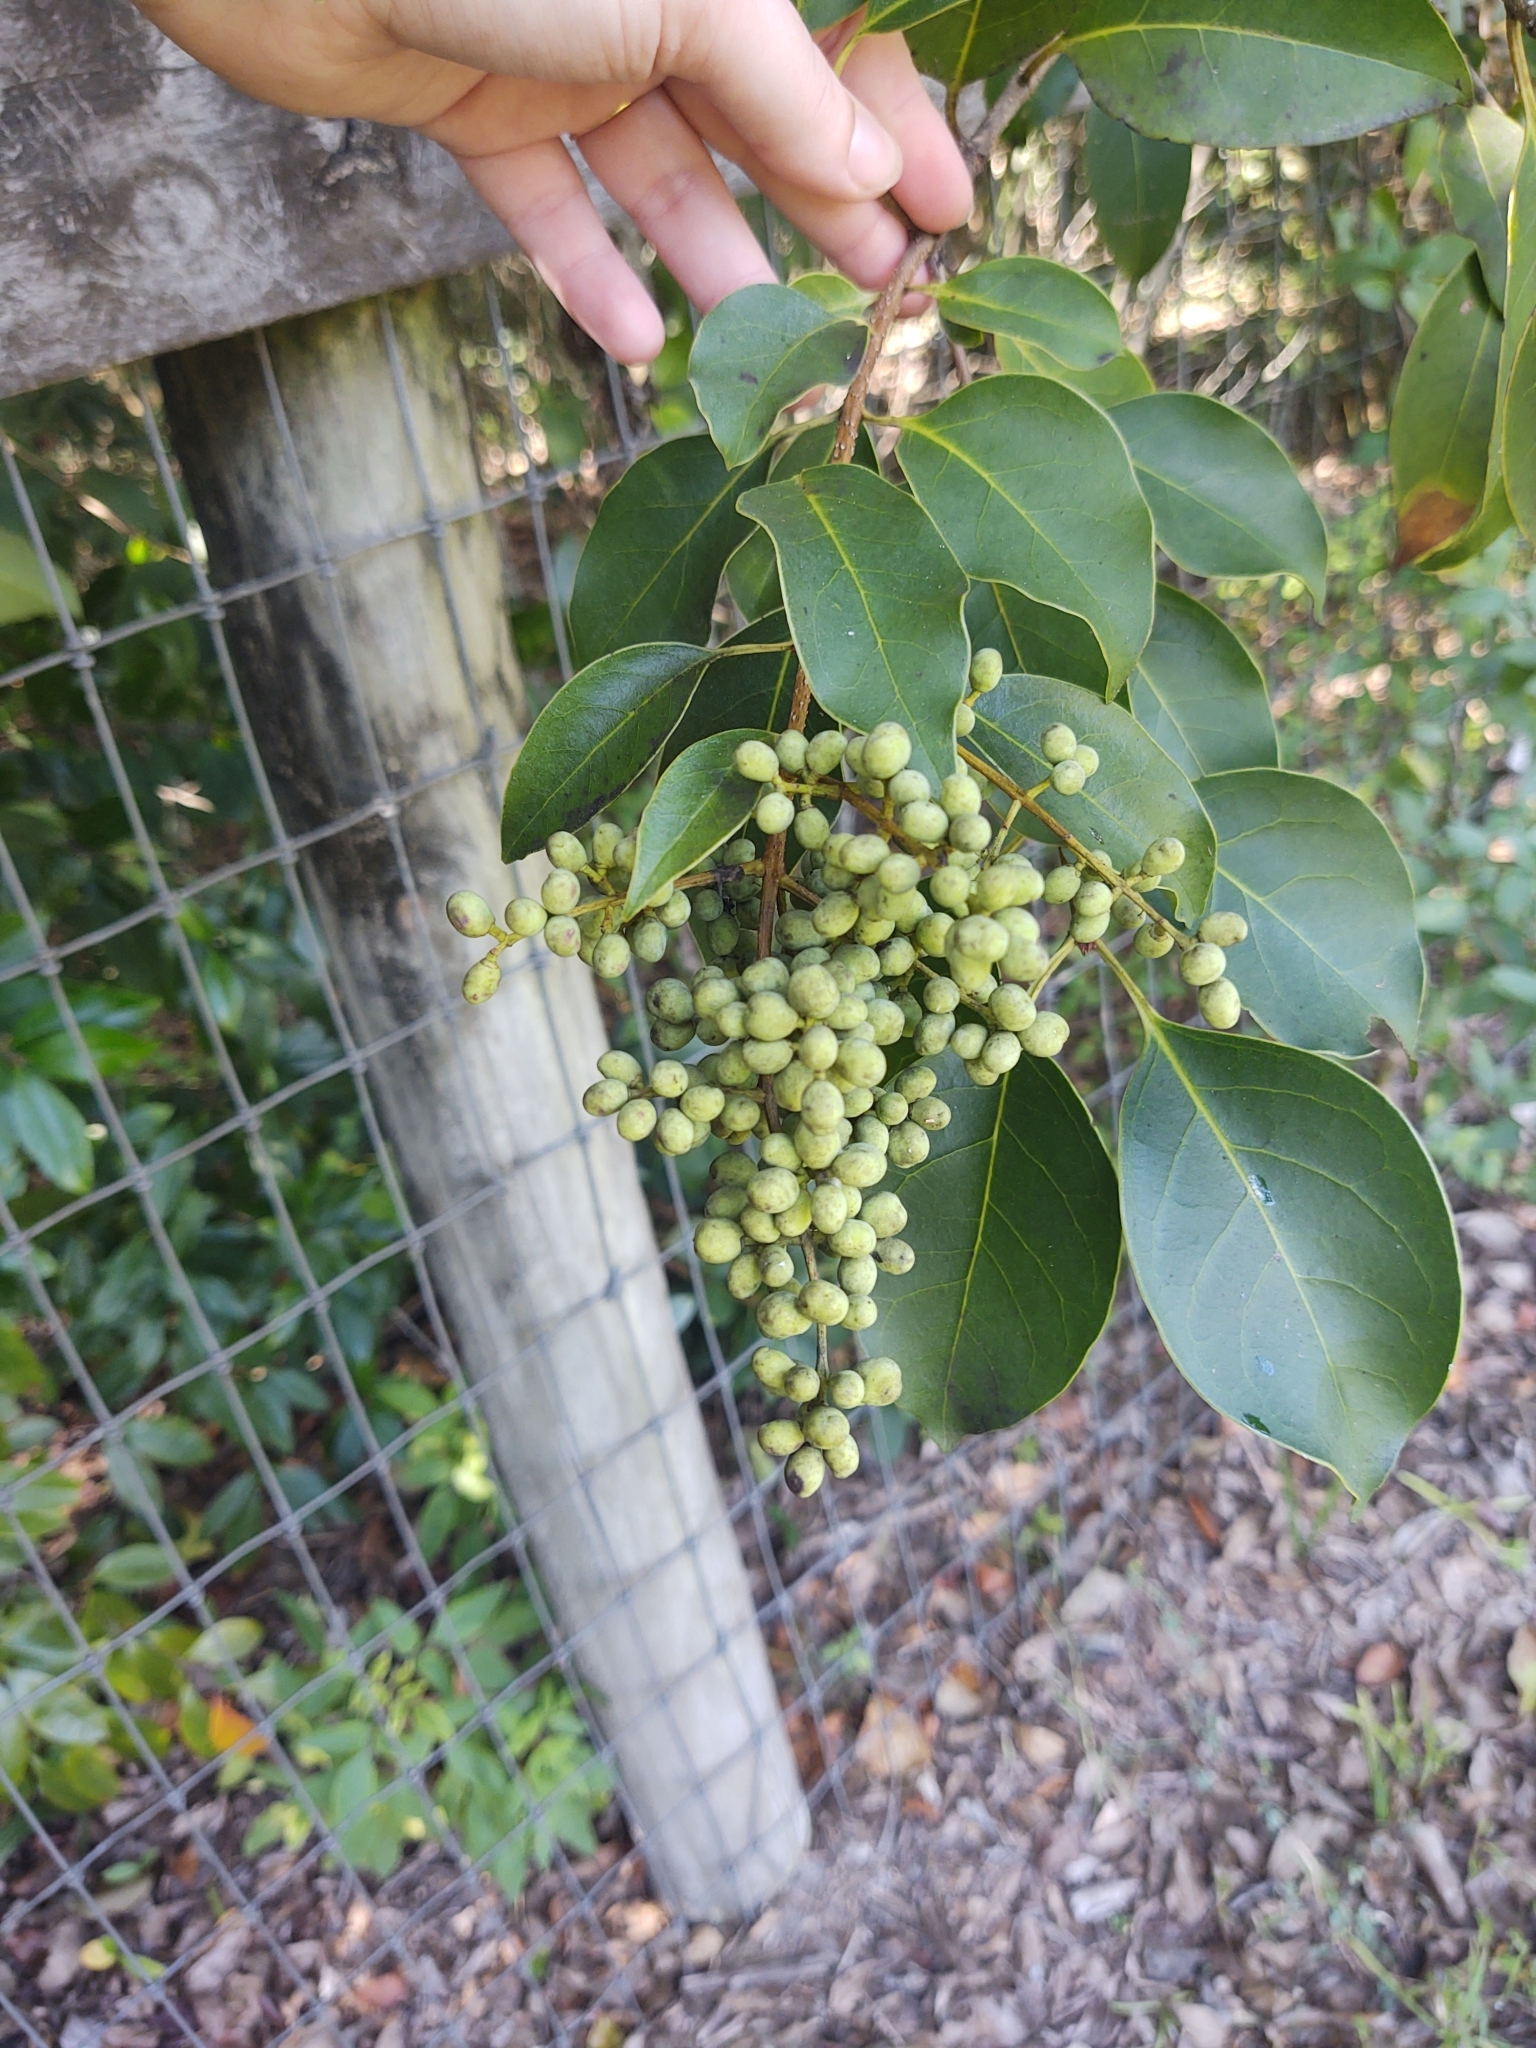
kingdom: Plantae
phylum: Tracheophyta
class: Magnoliopsida
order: Lamiales
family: Oleaceae
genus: Ligustrum
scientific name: Ligustrum lucidum
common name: Glossy privet
